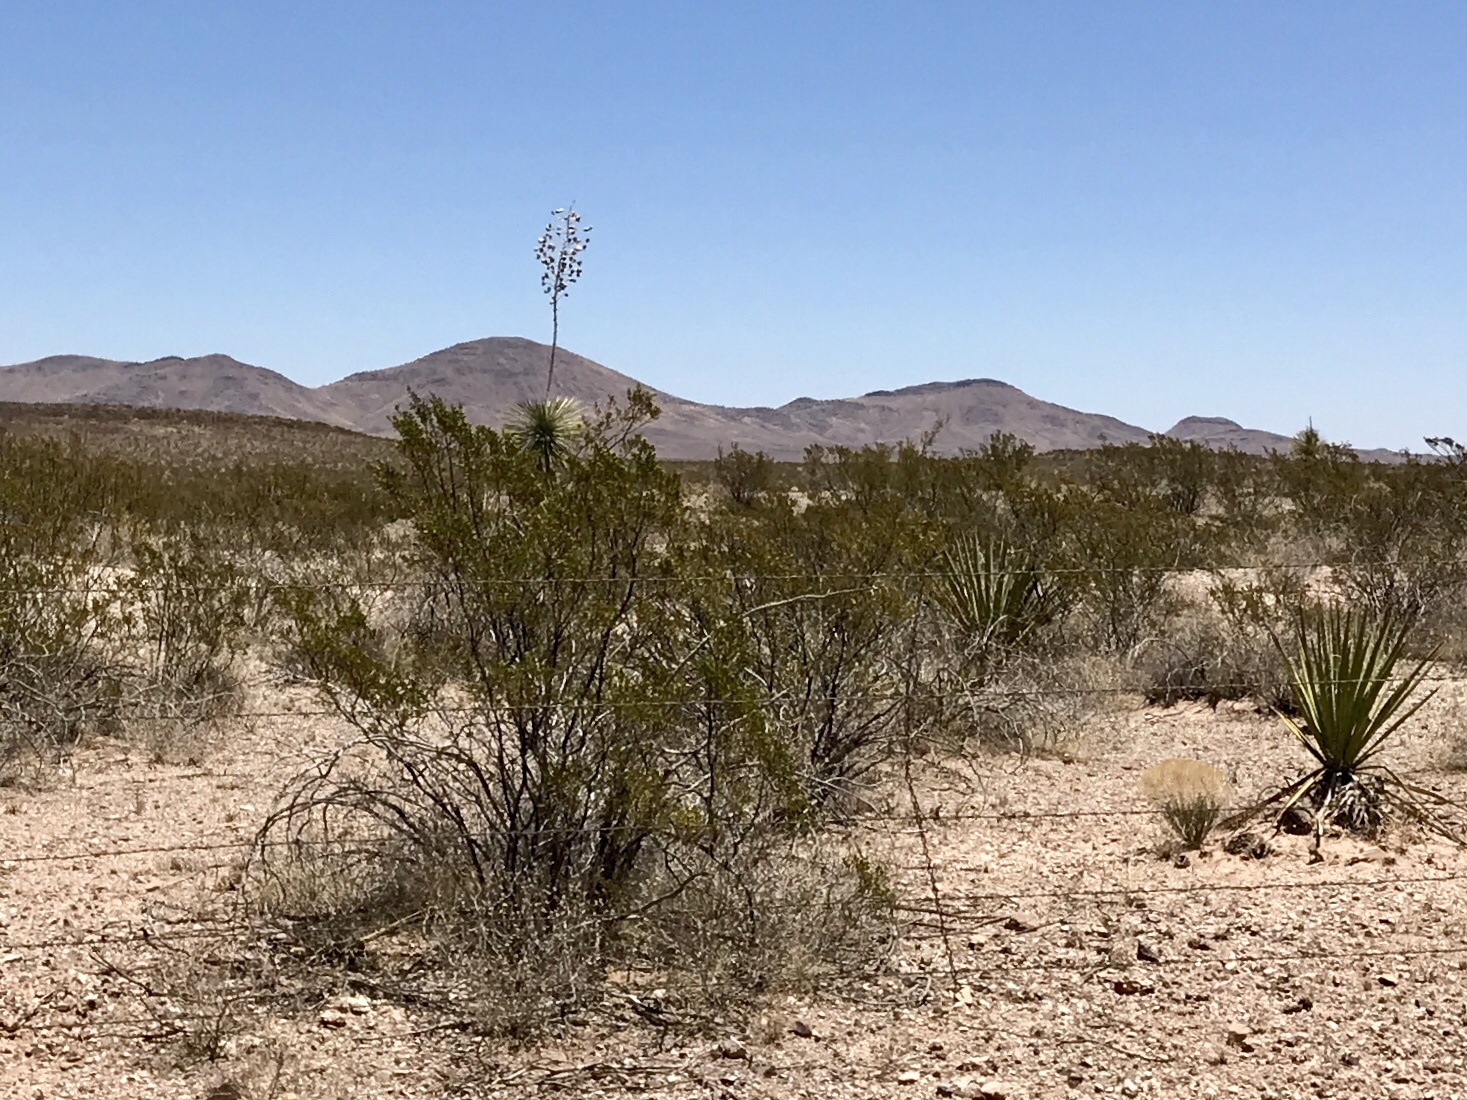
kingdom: Plantae
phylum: Tracheophyta
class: Magnoliopsida
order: Zygophyllales
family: Zygophyllaceae
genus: Larrea
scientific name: Larrea tridentata
